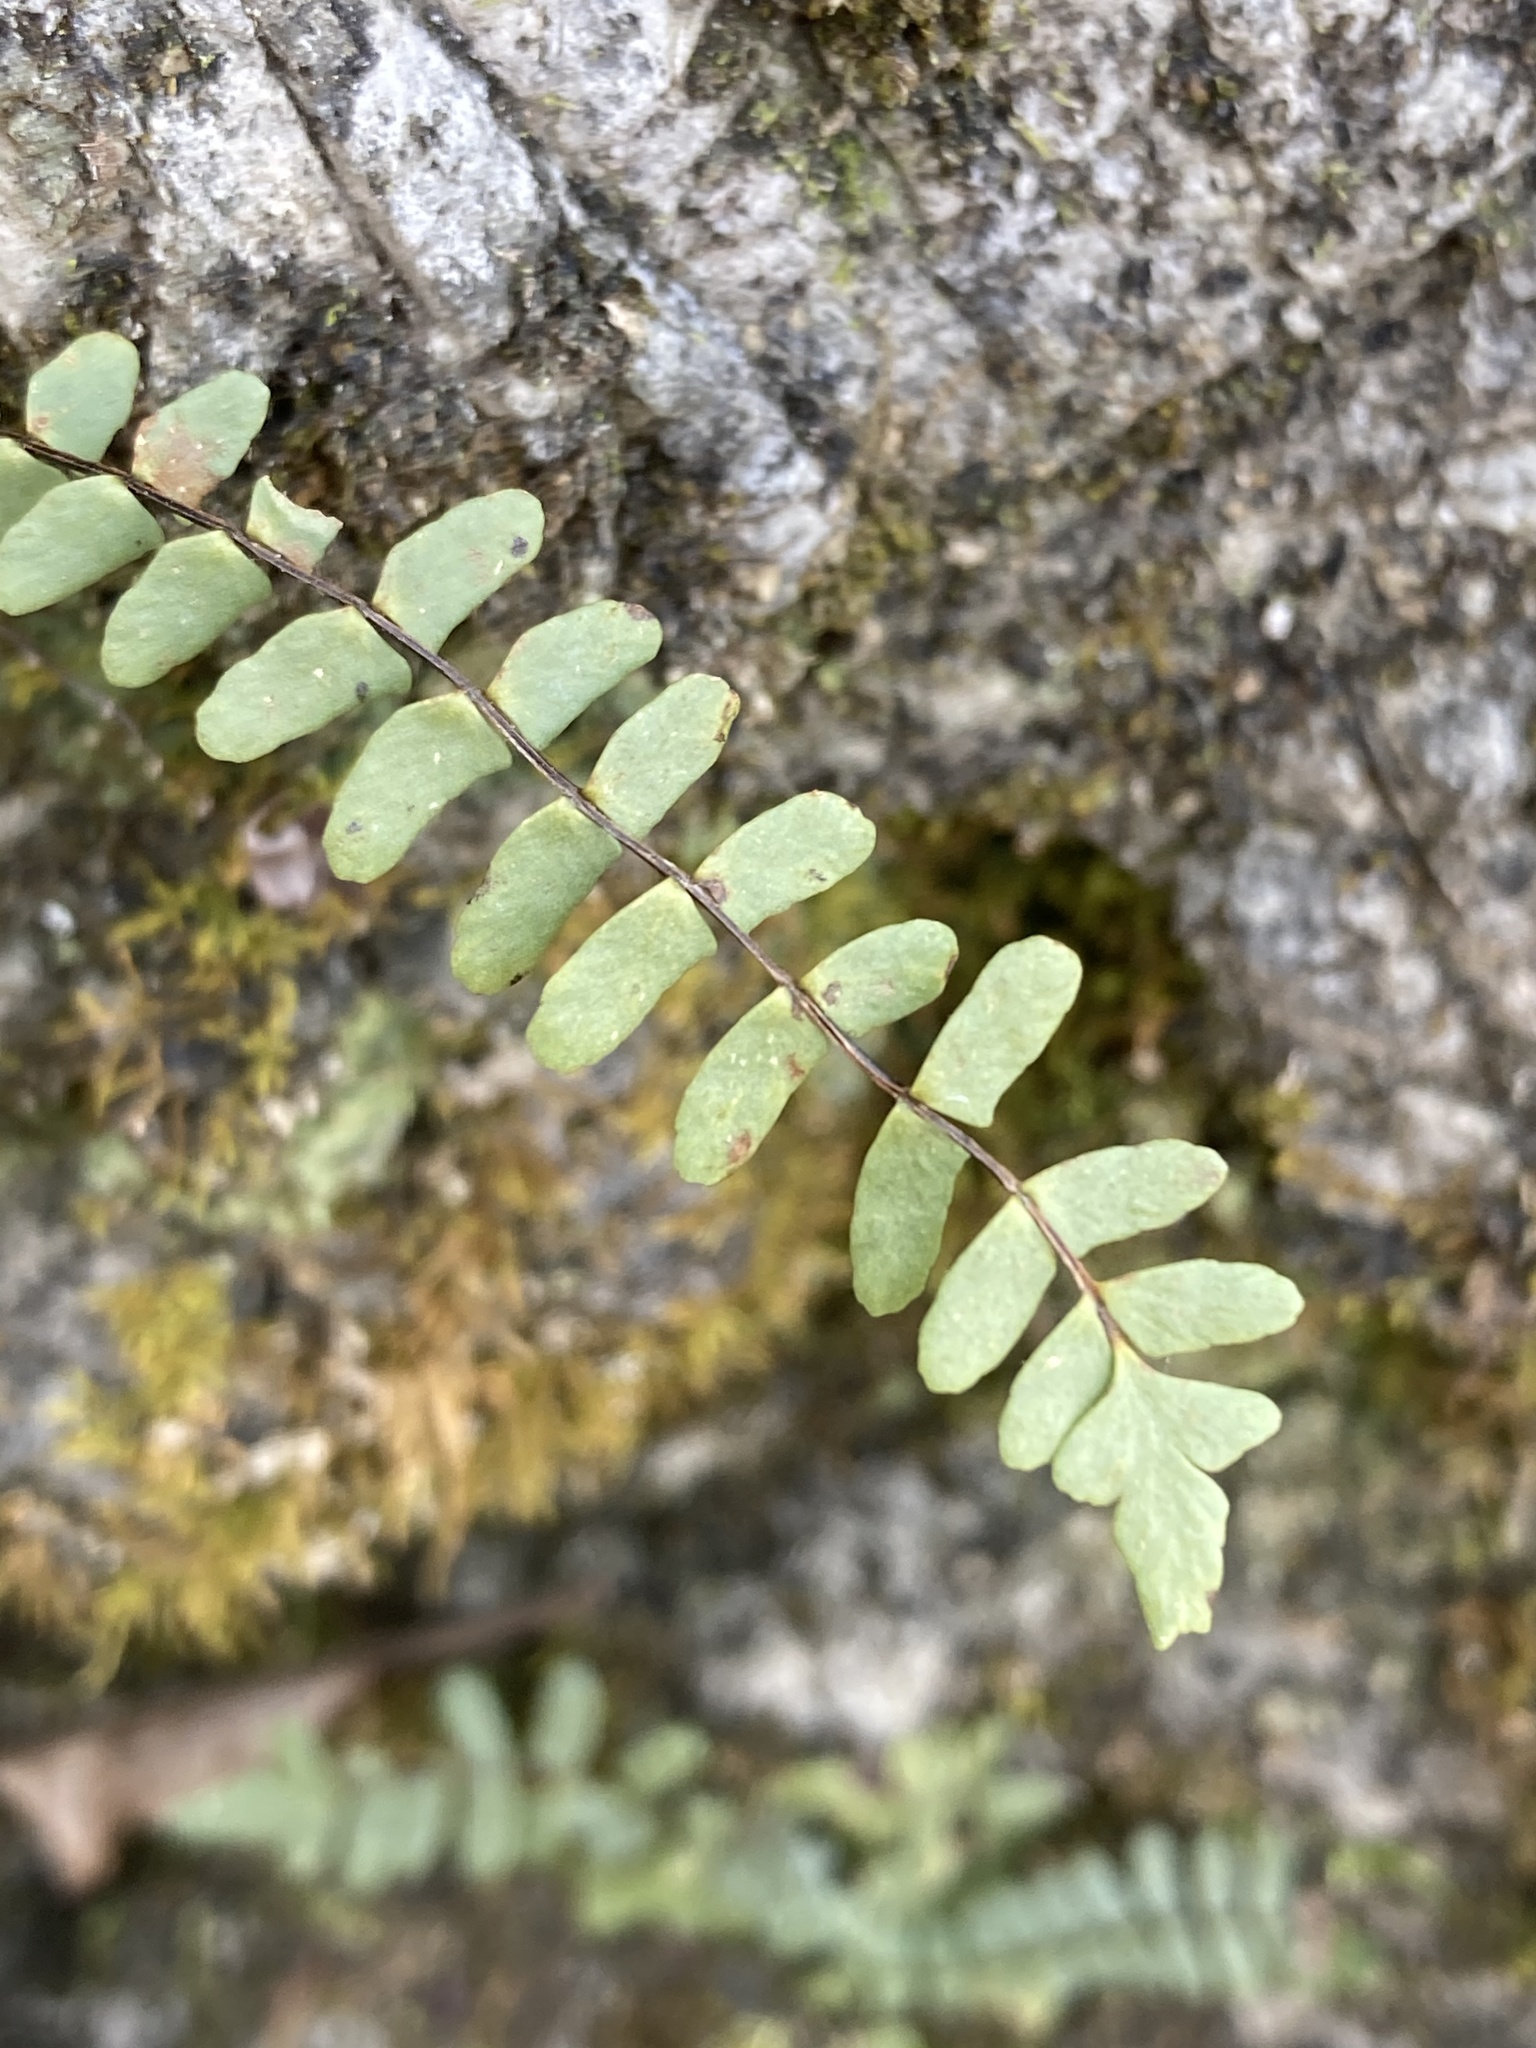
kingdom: Plantae
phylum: Tracheophyta
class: Polypodiopsida
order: Polypodiales
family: Aspleniaceae
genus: Asplenium
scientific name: Asplenium resiliens
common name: Blackstem spleenwort
